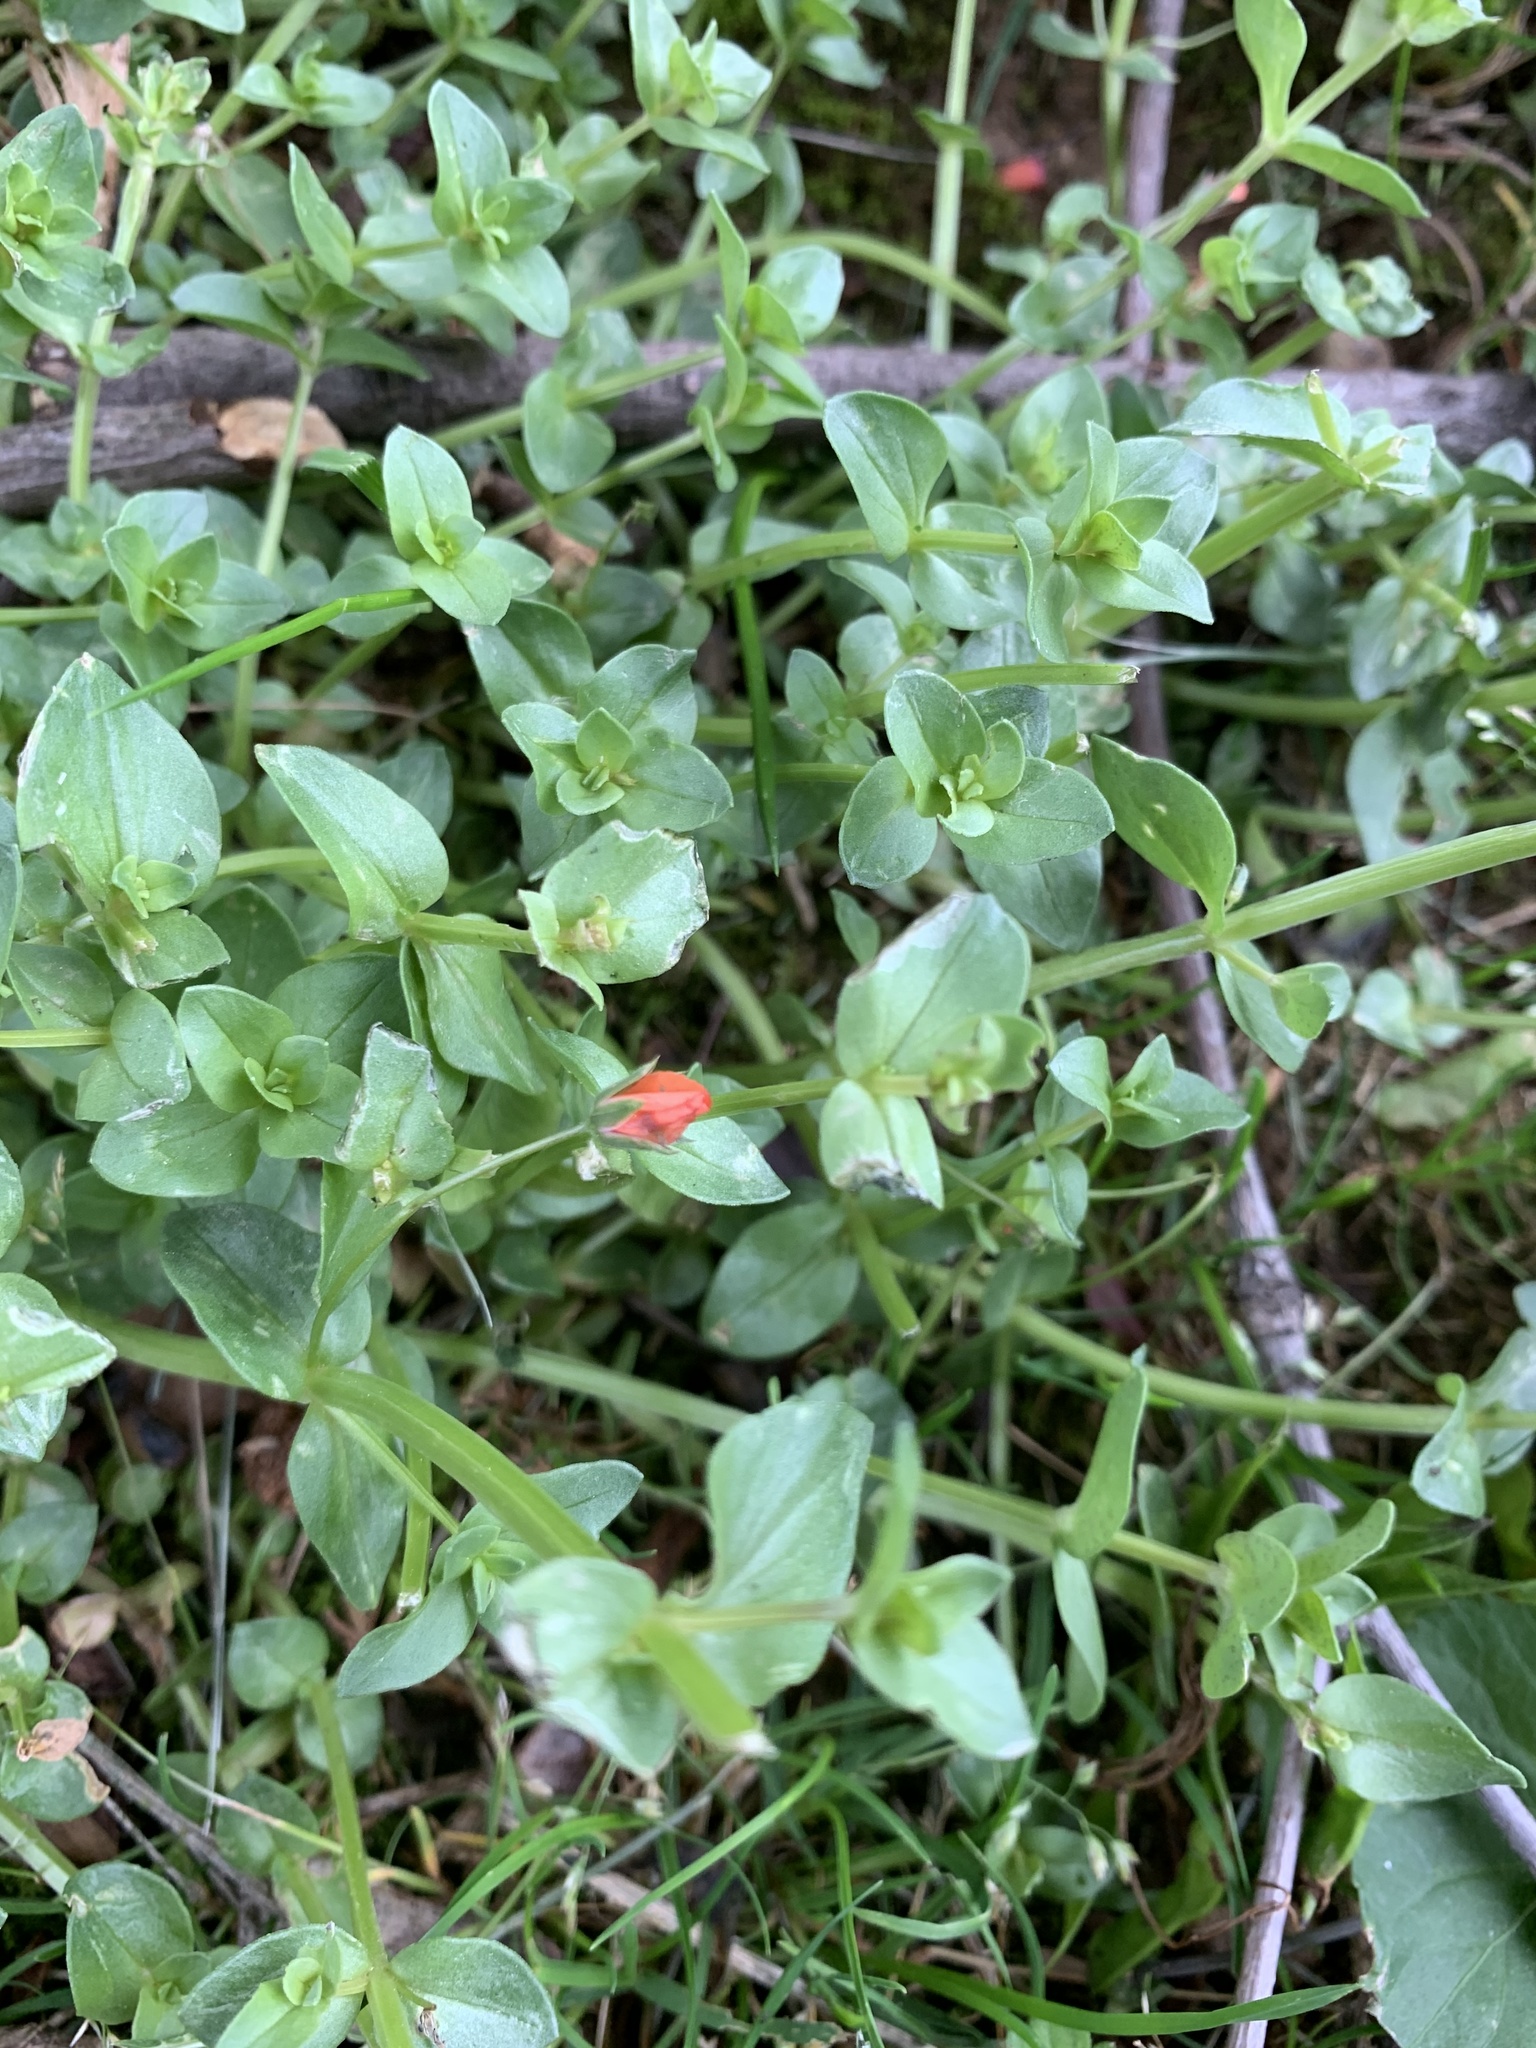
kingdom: Plantae
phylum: Tracheophyta
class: Magnoliopsida
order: Ericales
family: Primulaceae
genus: Lysimachia
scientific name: Lysimachia arvensis
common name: Scarlet pimpernel
